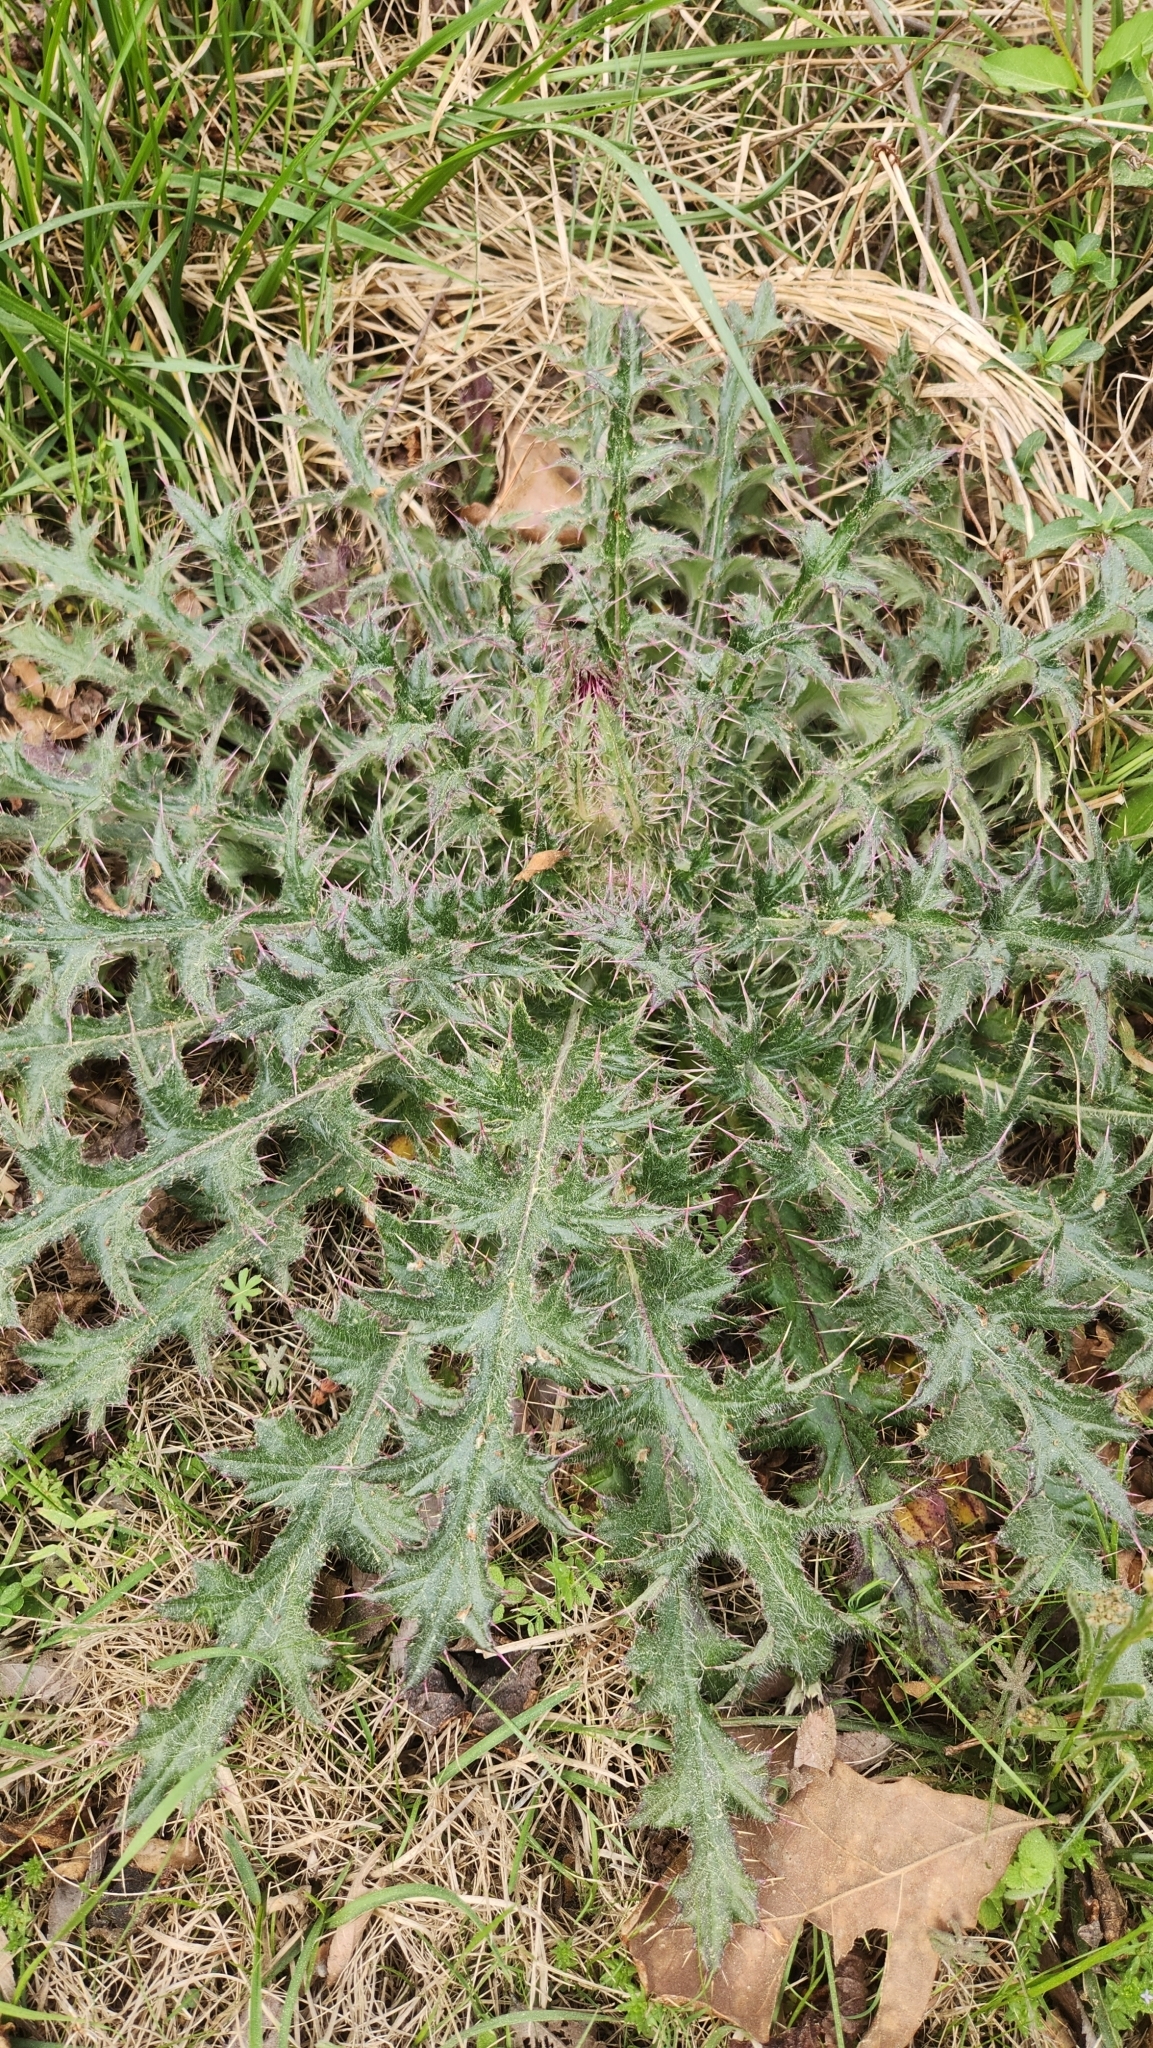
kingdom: Plantae
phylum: Tracheophyta
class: Magnoliopsida
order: Asterales
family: Asteraceae
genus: Cirsium
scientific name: Cirsium horridulum
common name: Bristly thistle
